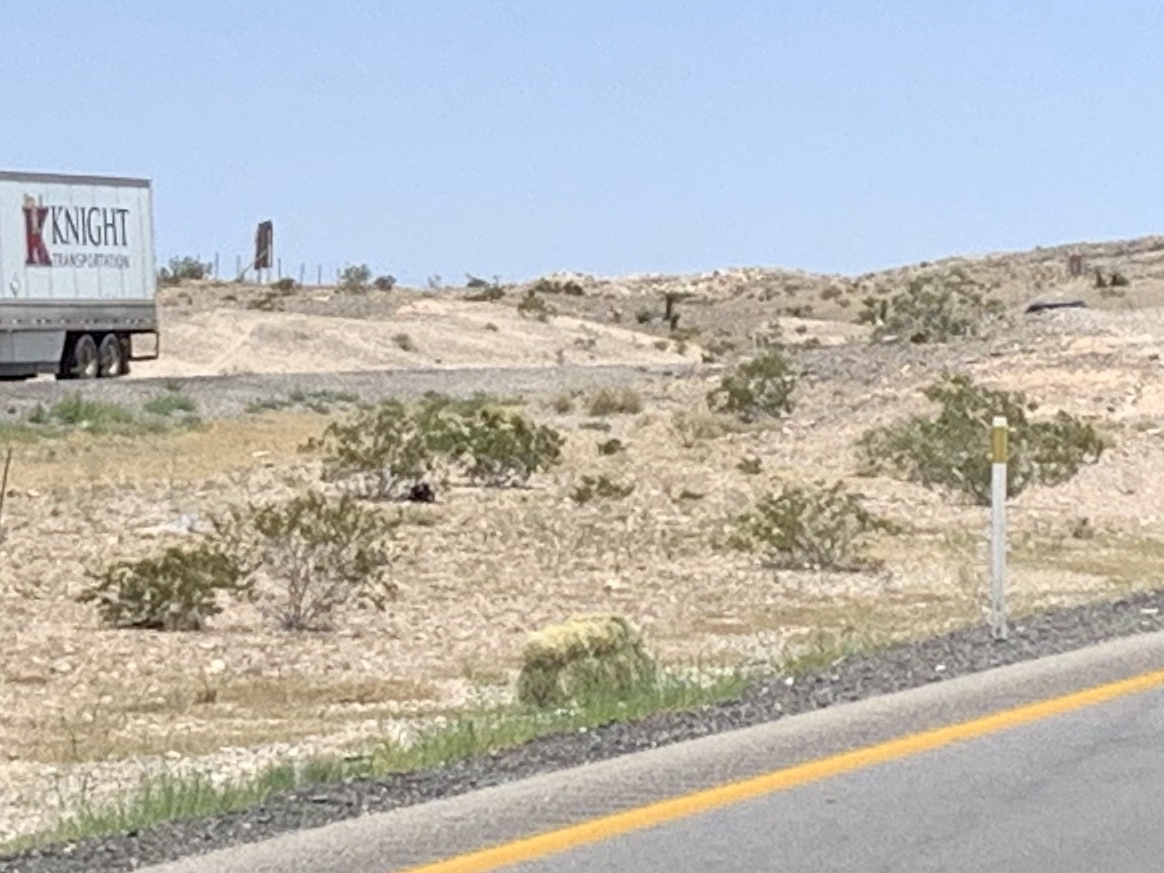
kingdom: Plantae
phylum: Tracheophyta
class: Magnoliopsida
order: Zygophyllales
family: Zygophyllaceae
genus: Larrea
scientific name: Larrea tridentata
